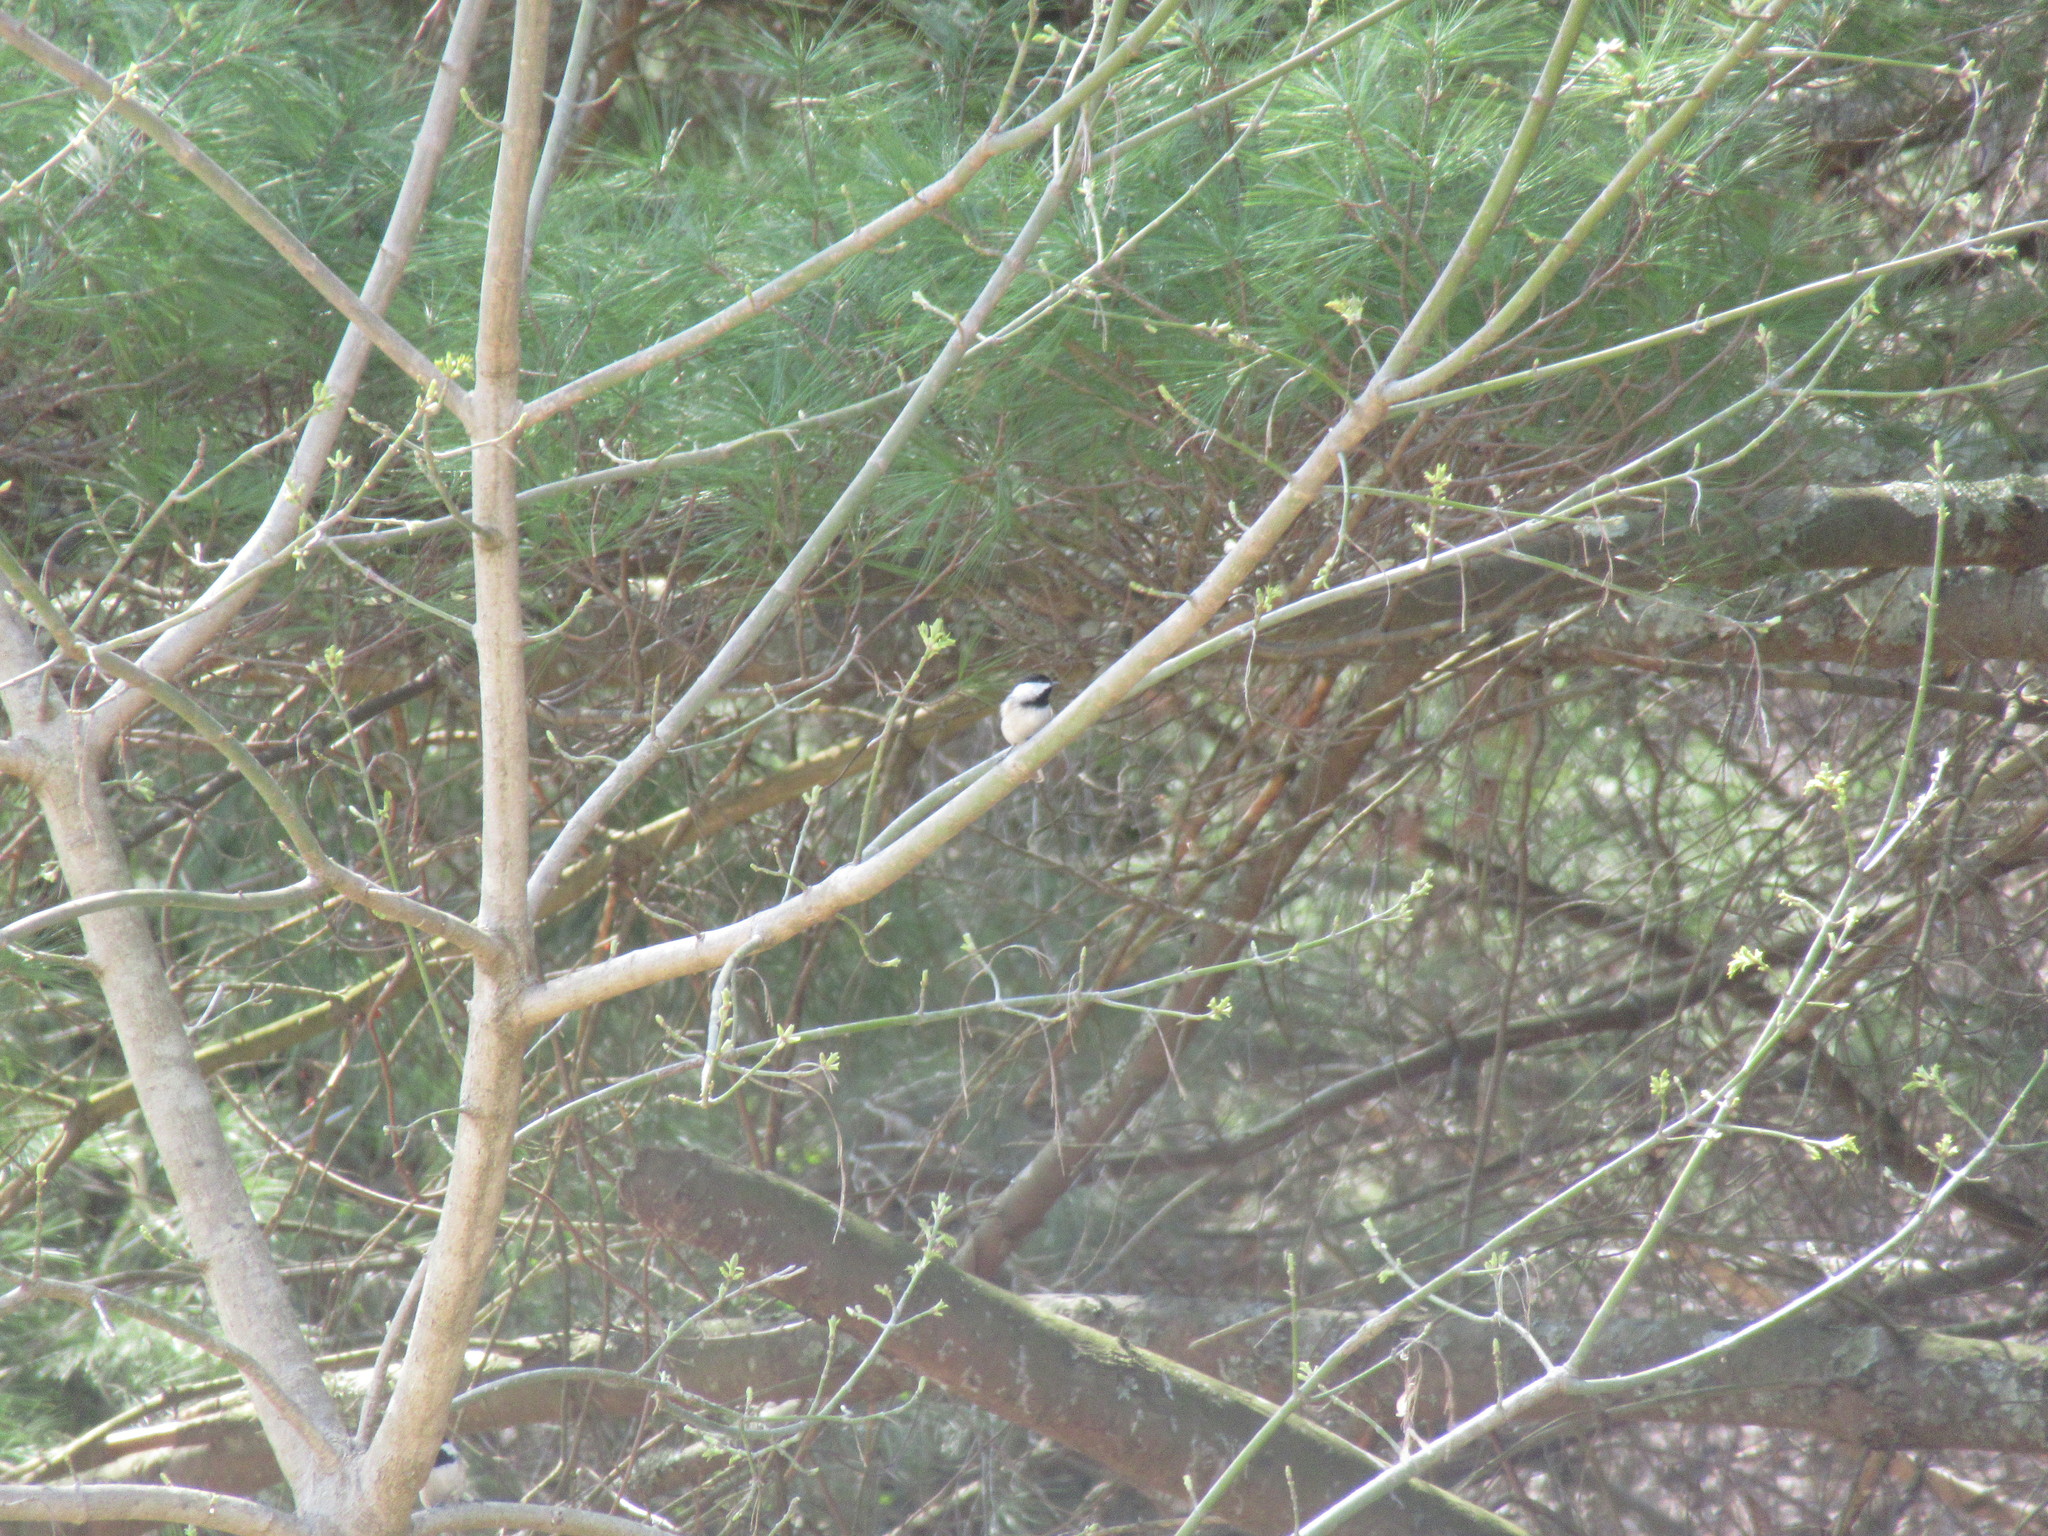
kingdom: Animalia
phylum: Chordata
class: Aves
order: Passeriformes
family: Paridae
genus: Poecile
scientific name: Poecile carolinensis
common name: Carolina chickadee
